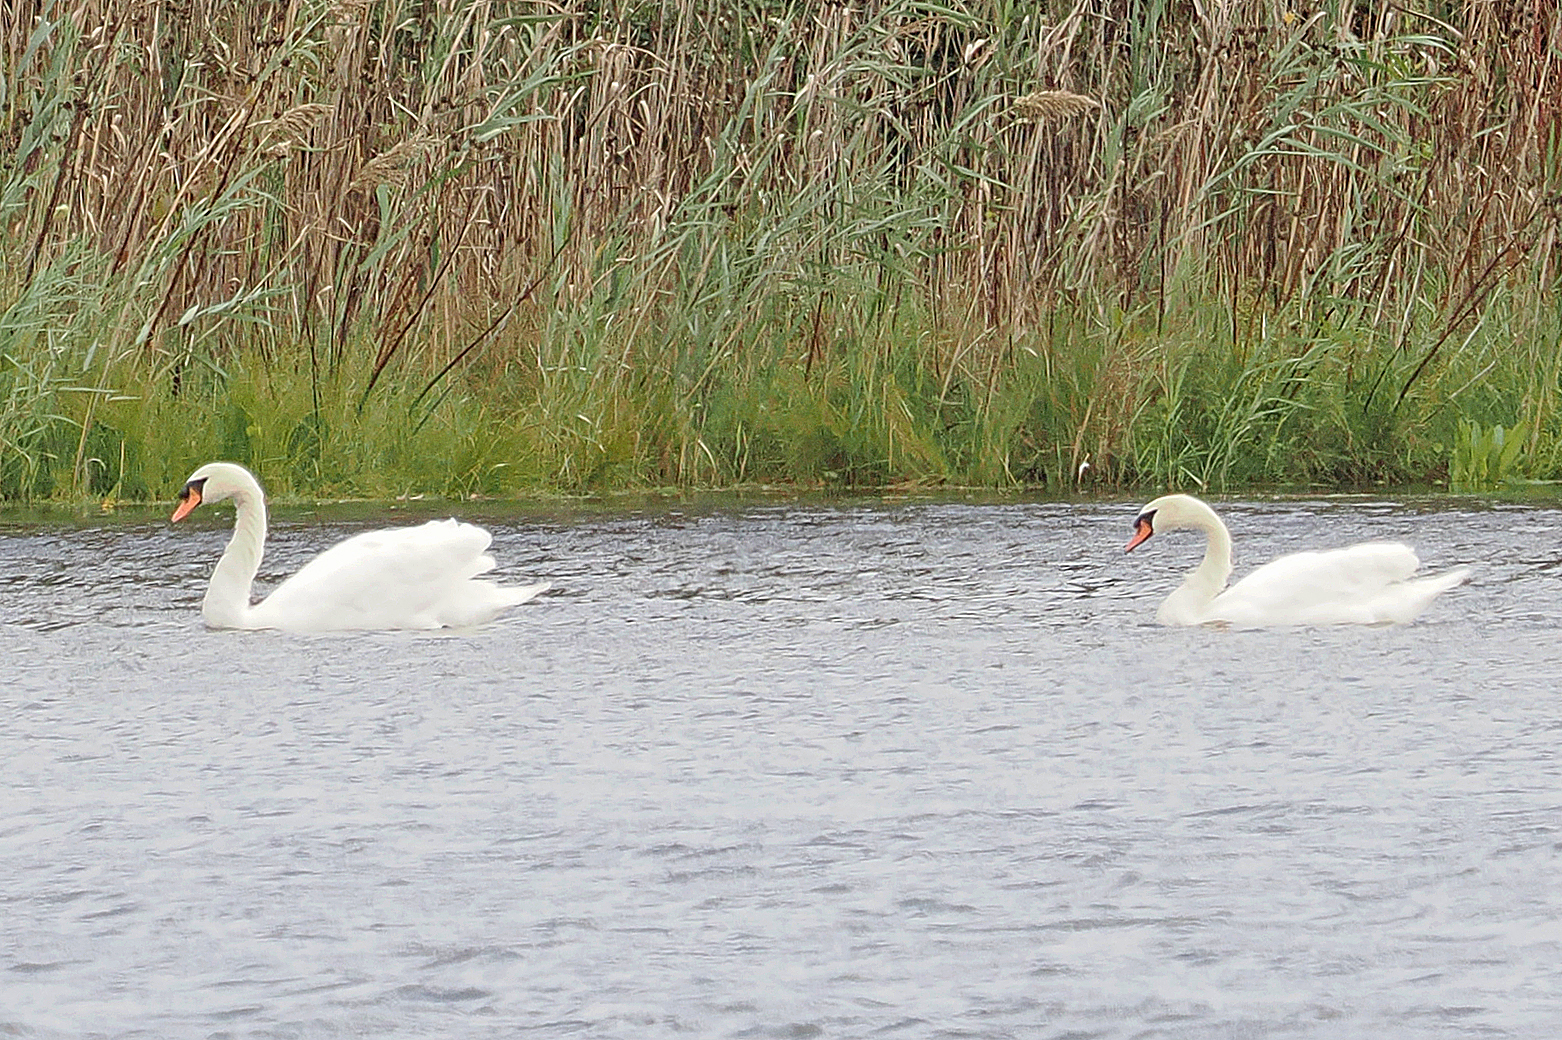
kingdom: Animalia
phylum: Chordata
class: Aves
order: Anseriformes
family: Anatidae
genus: Cygnus
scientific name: Cygnus olor
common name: Mute swan
